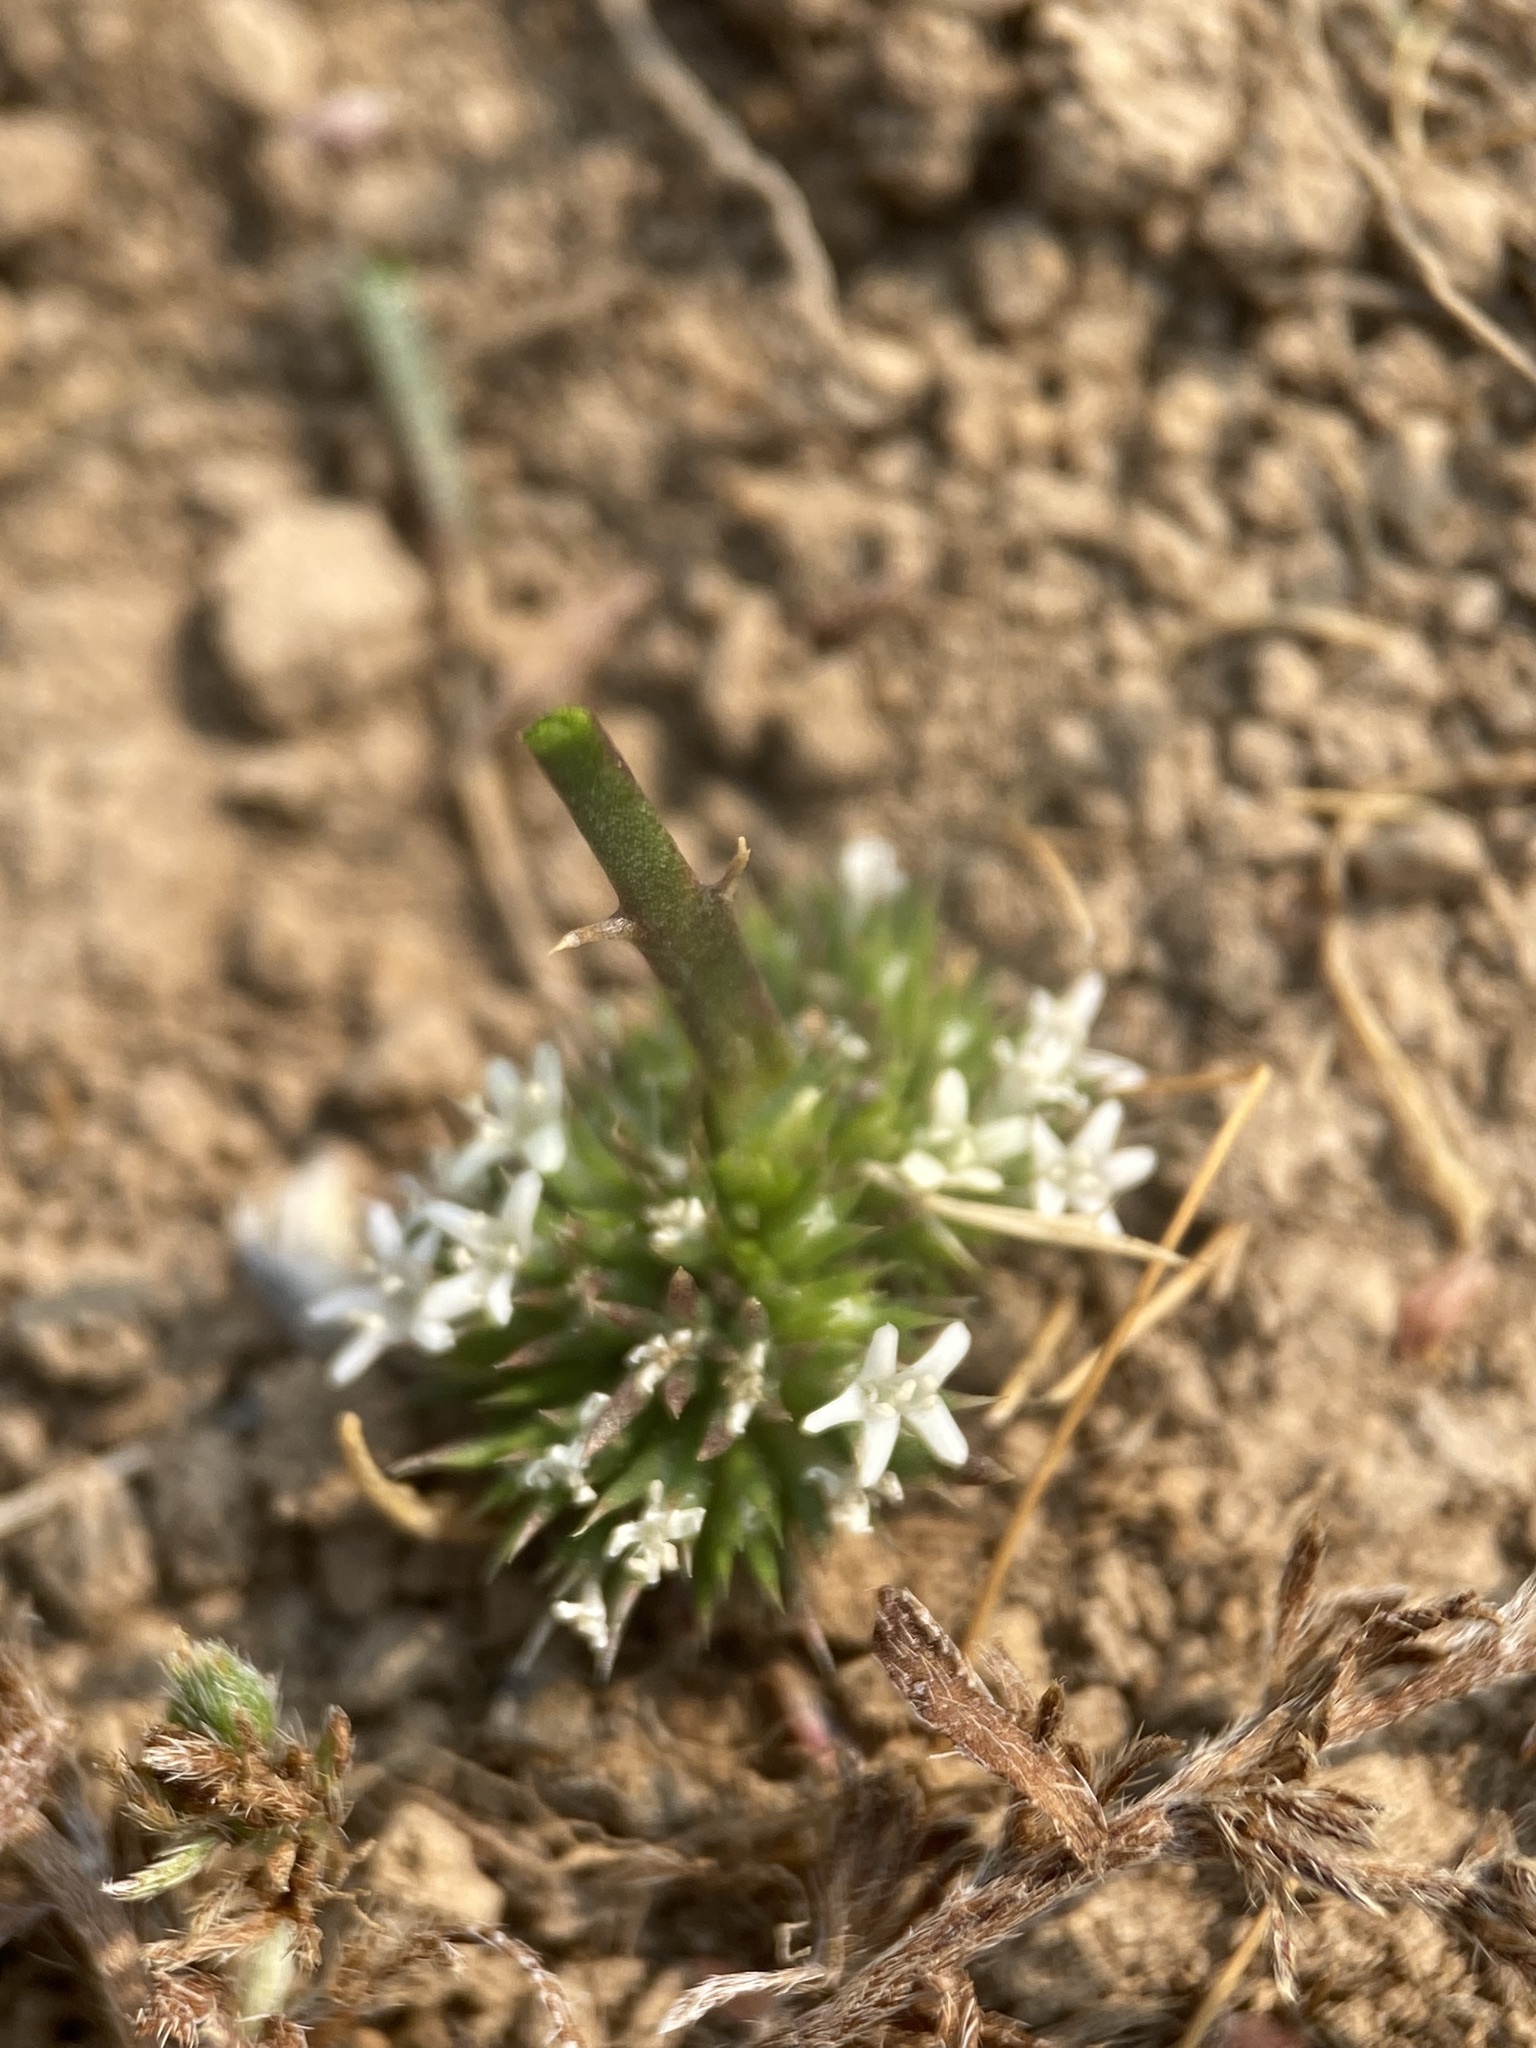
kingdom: Plantae
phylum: Tracheophyta
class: Magnoliopsida
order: Ericales
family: Polemoniaceae
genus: Navarretia
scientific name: Navarretia leucocephala
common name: White-flowered navarretia
